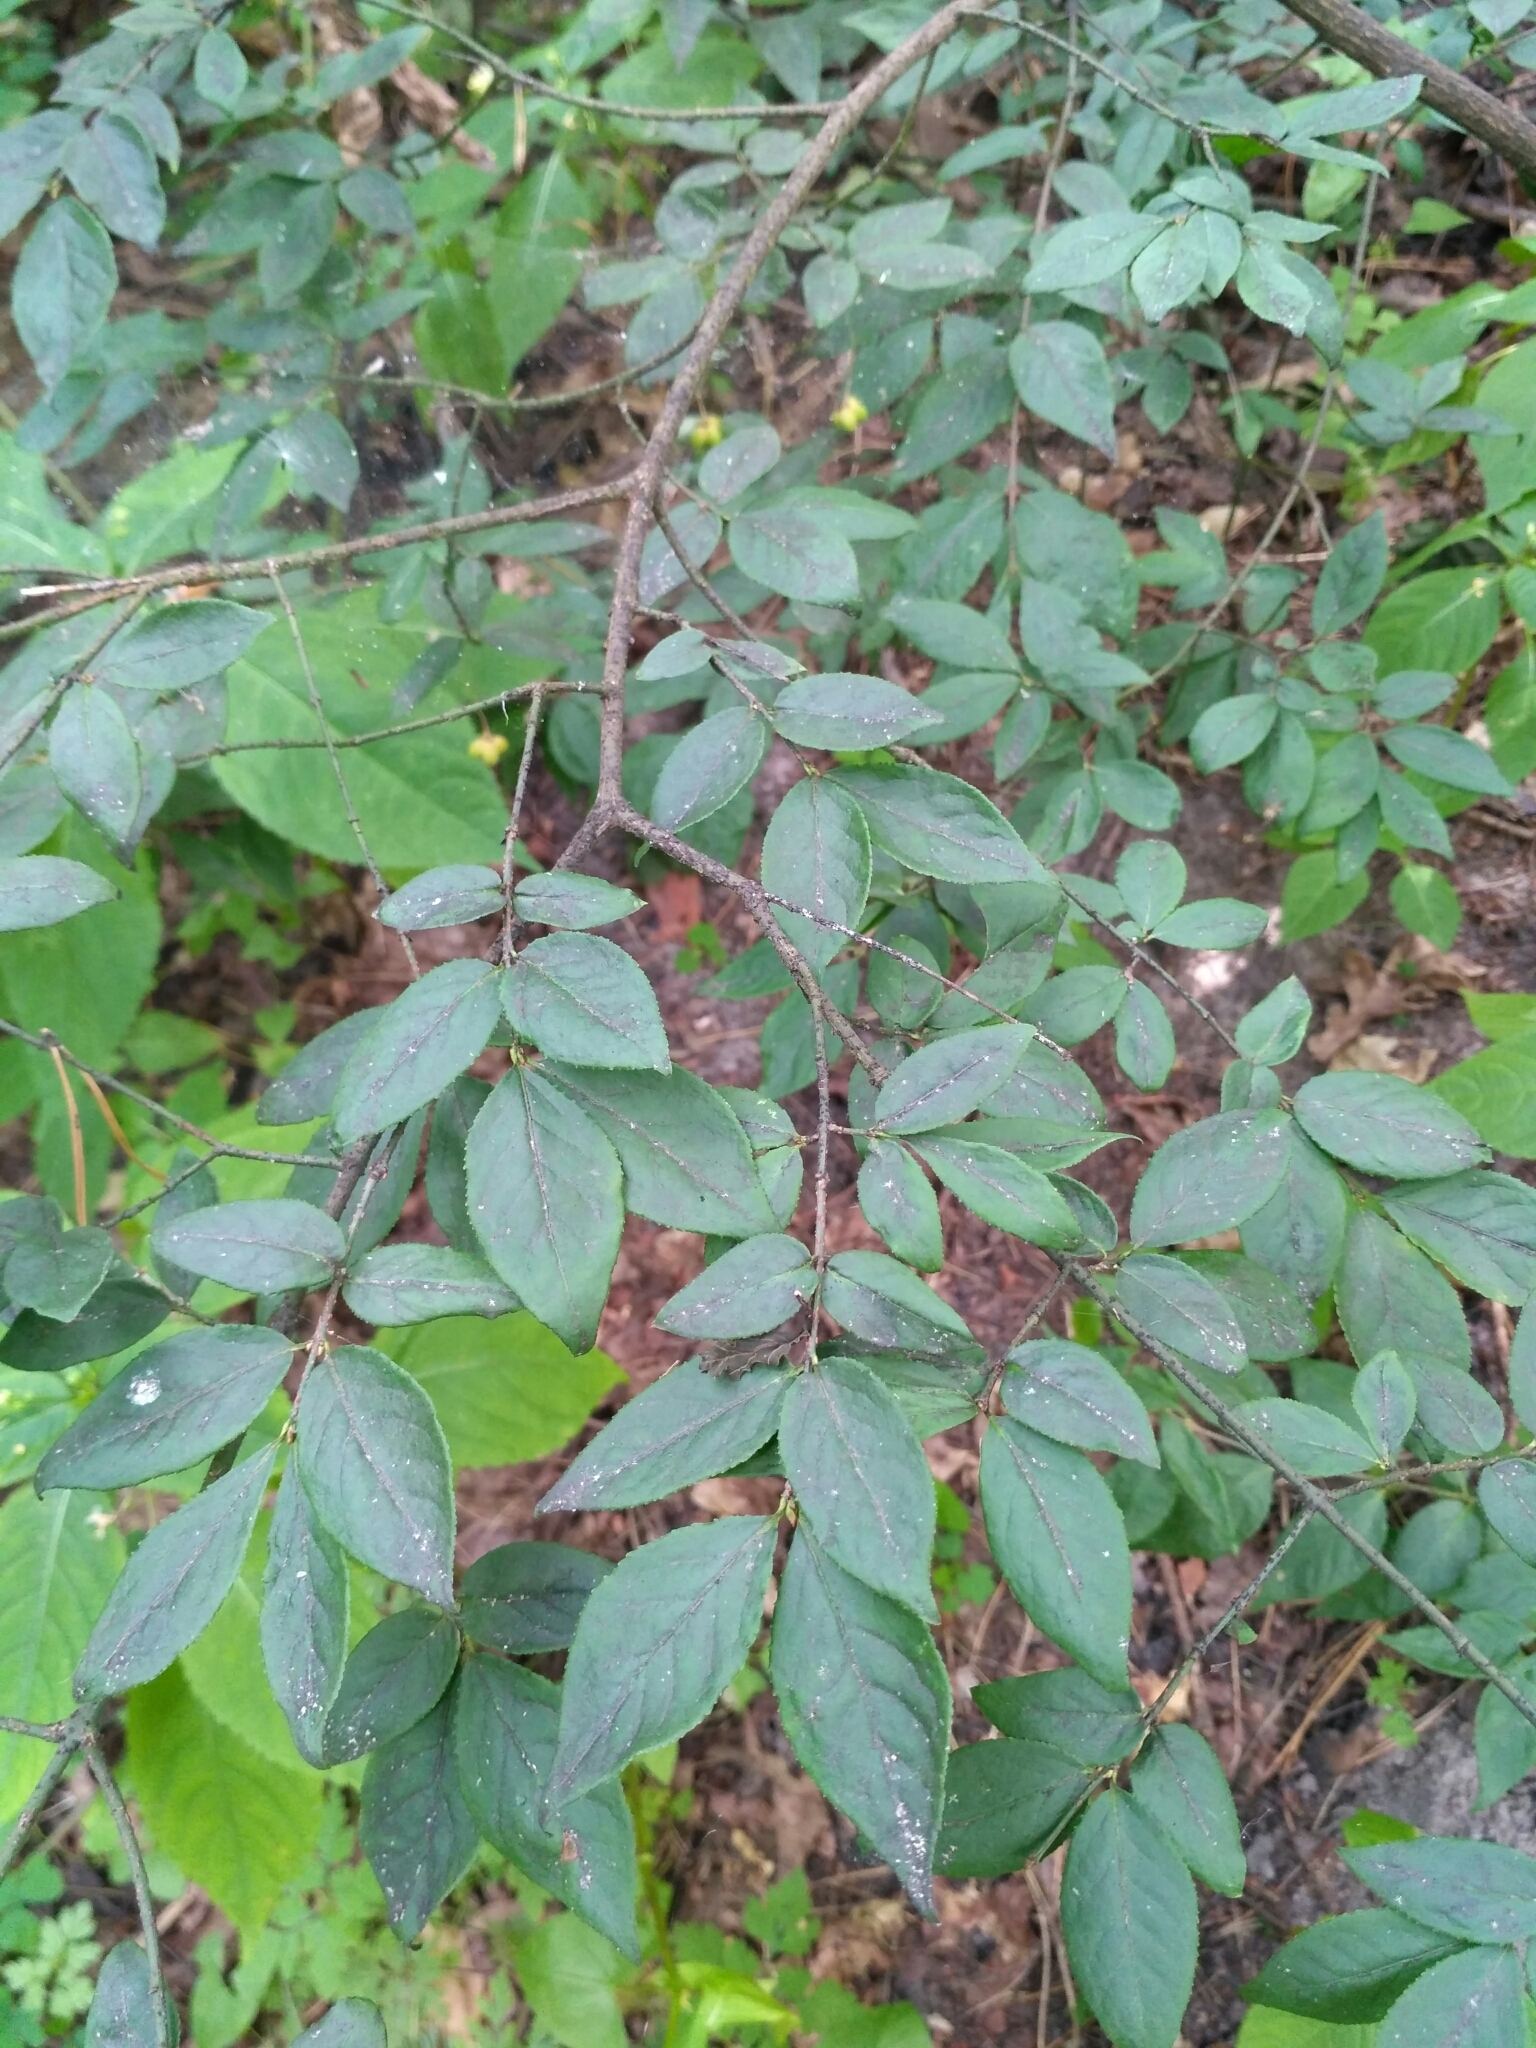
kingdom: Plantae
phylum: Tracheophyta
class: Magnoliopsida
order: Celastrales
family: Celastraceae
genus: Euonymus
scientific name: Euonymus verrucosus
